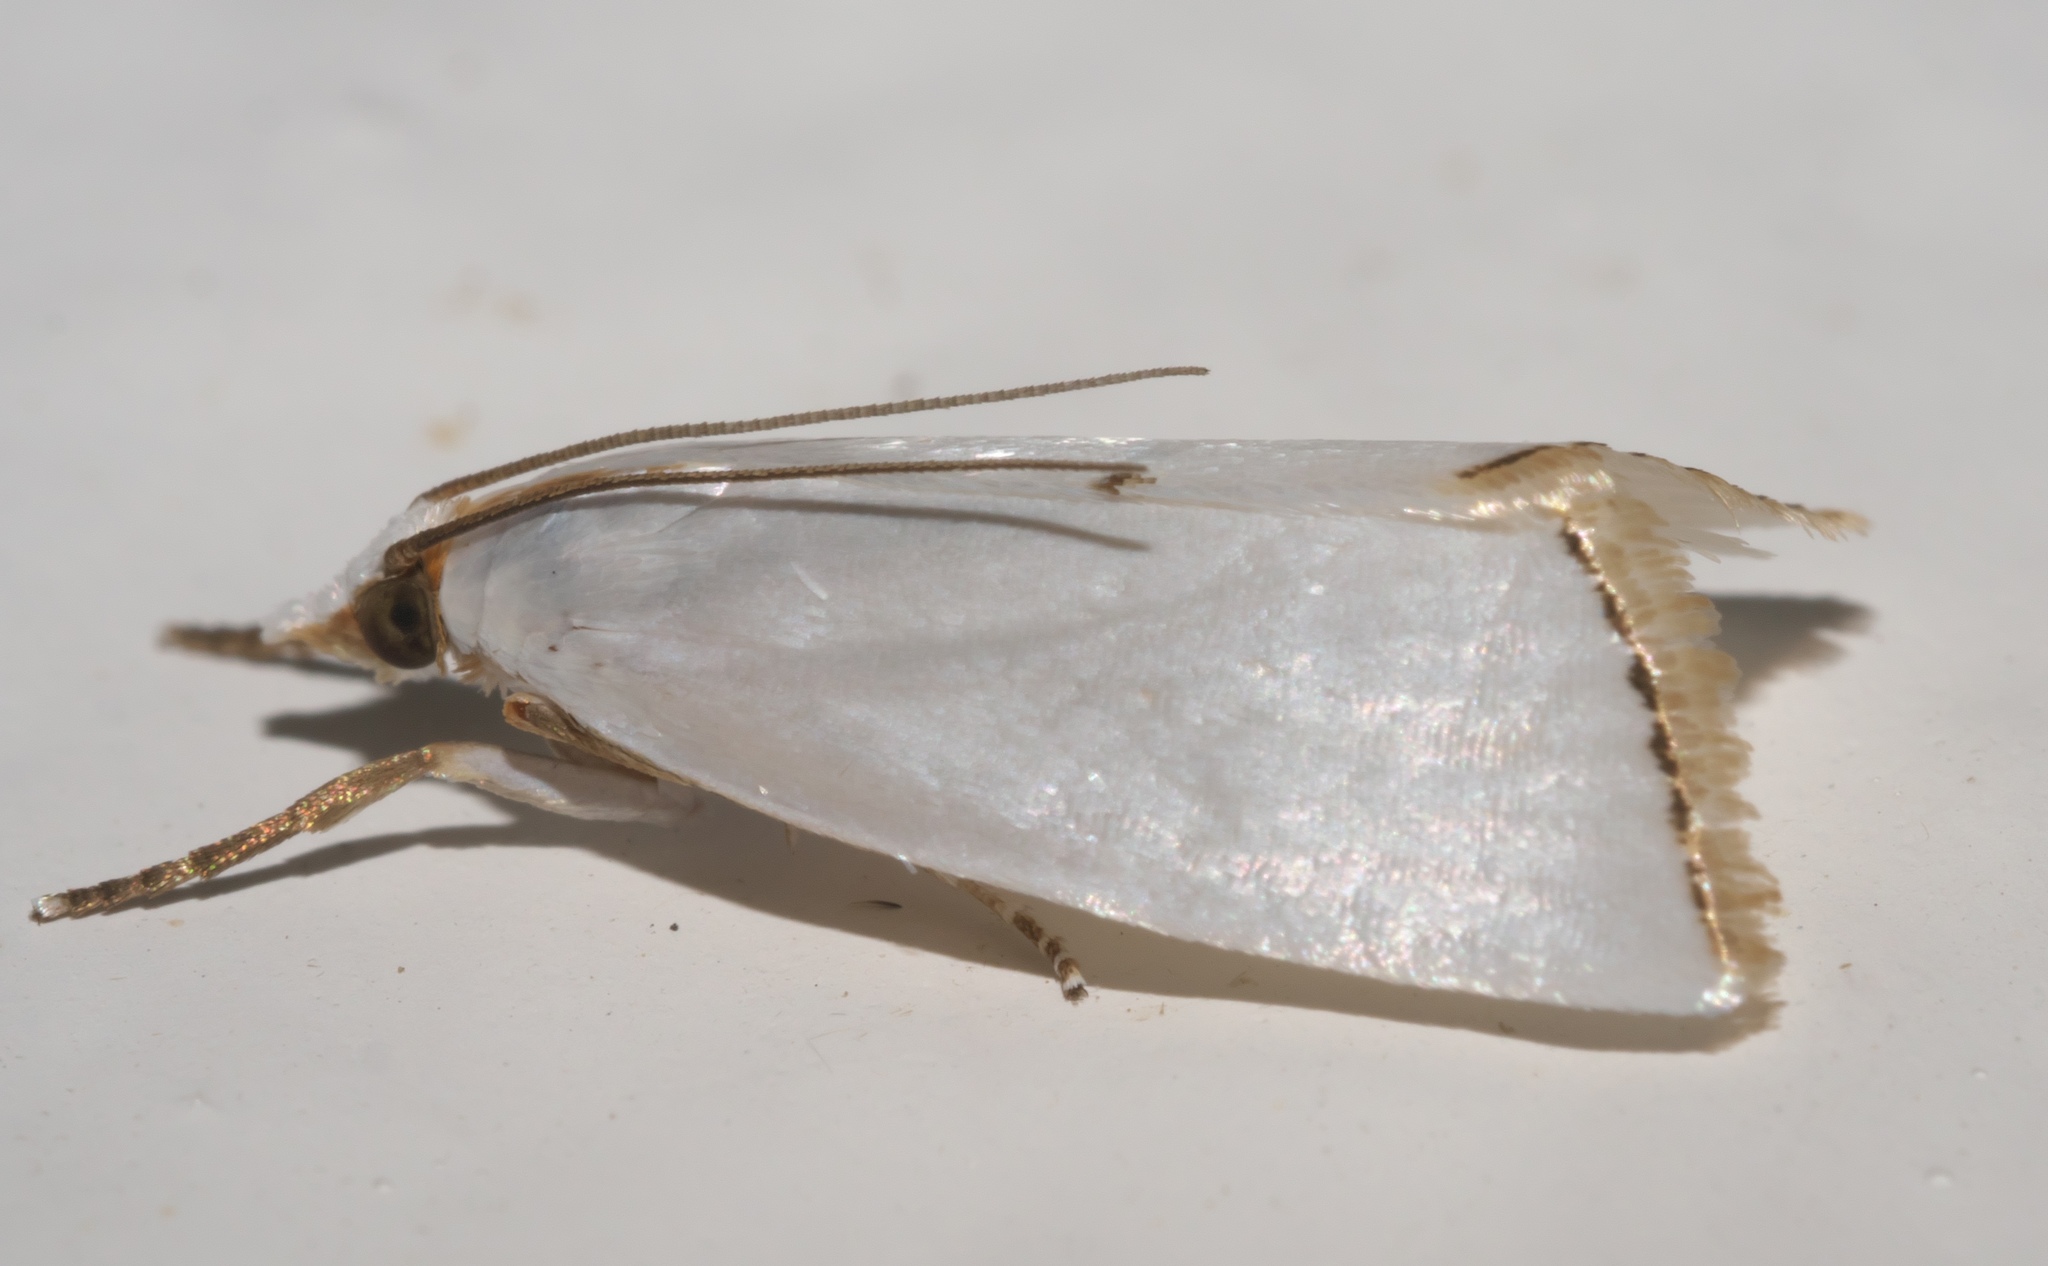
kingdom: Animalia
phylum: Arthropoda
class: Insecta
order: Lepidoptera
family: Crambidae
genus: Argyria
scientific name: Argyria nivalis
